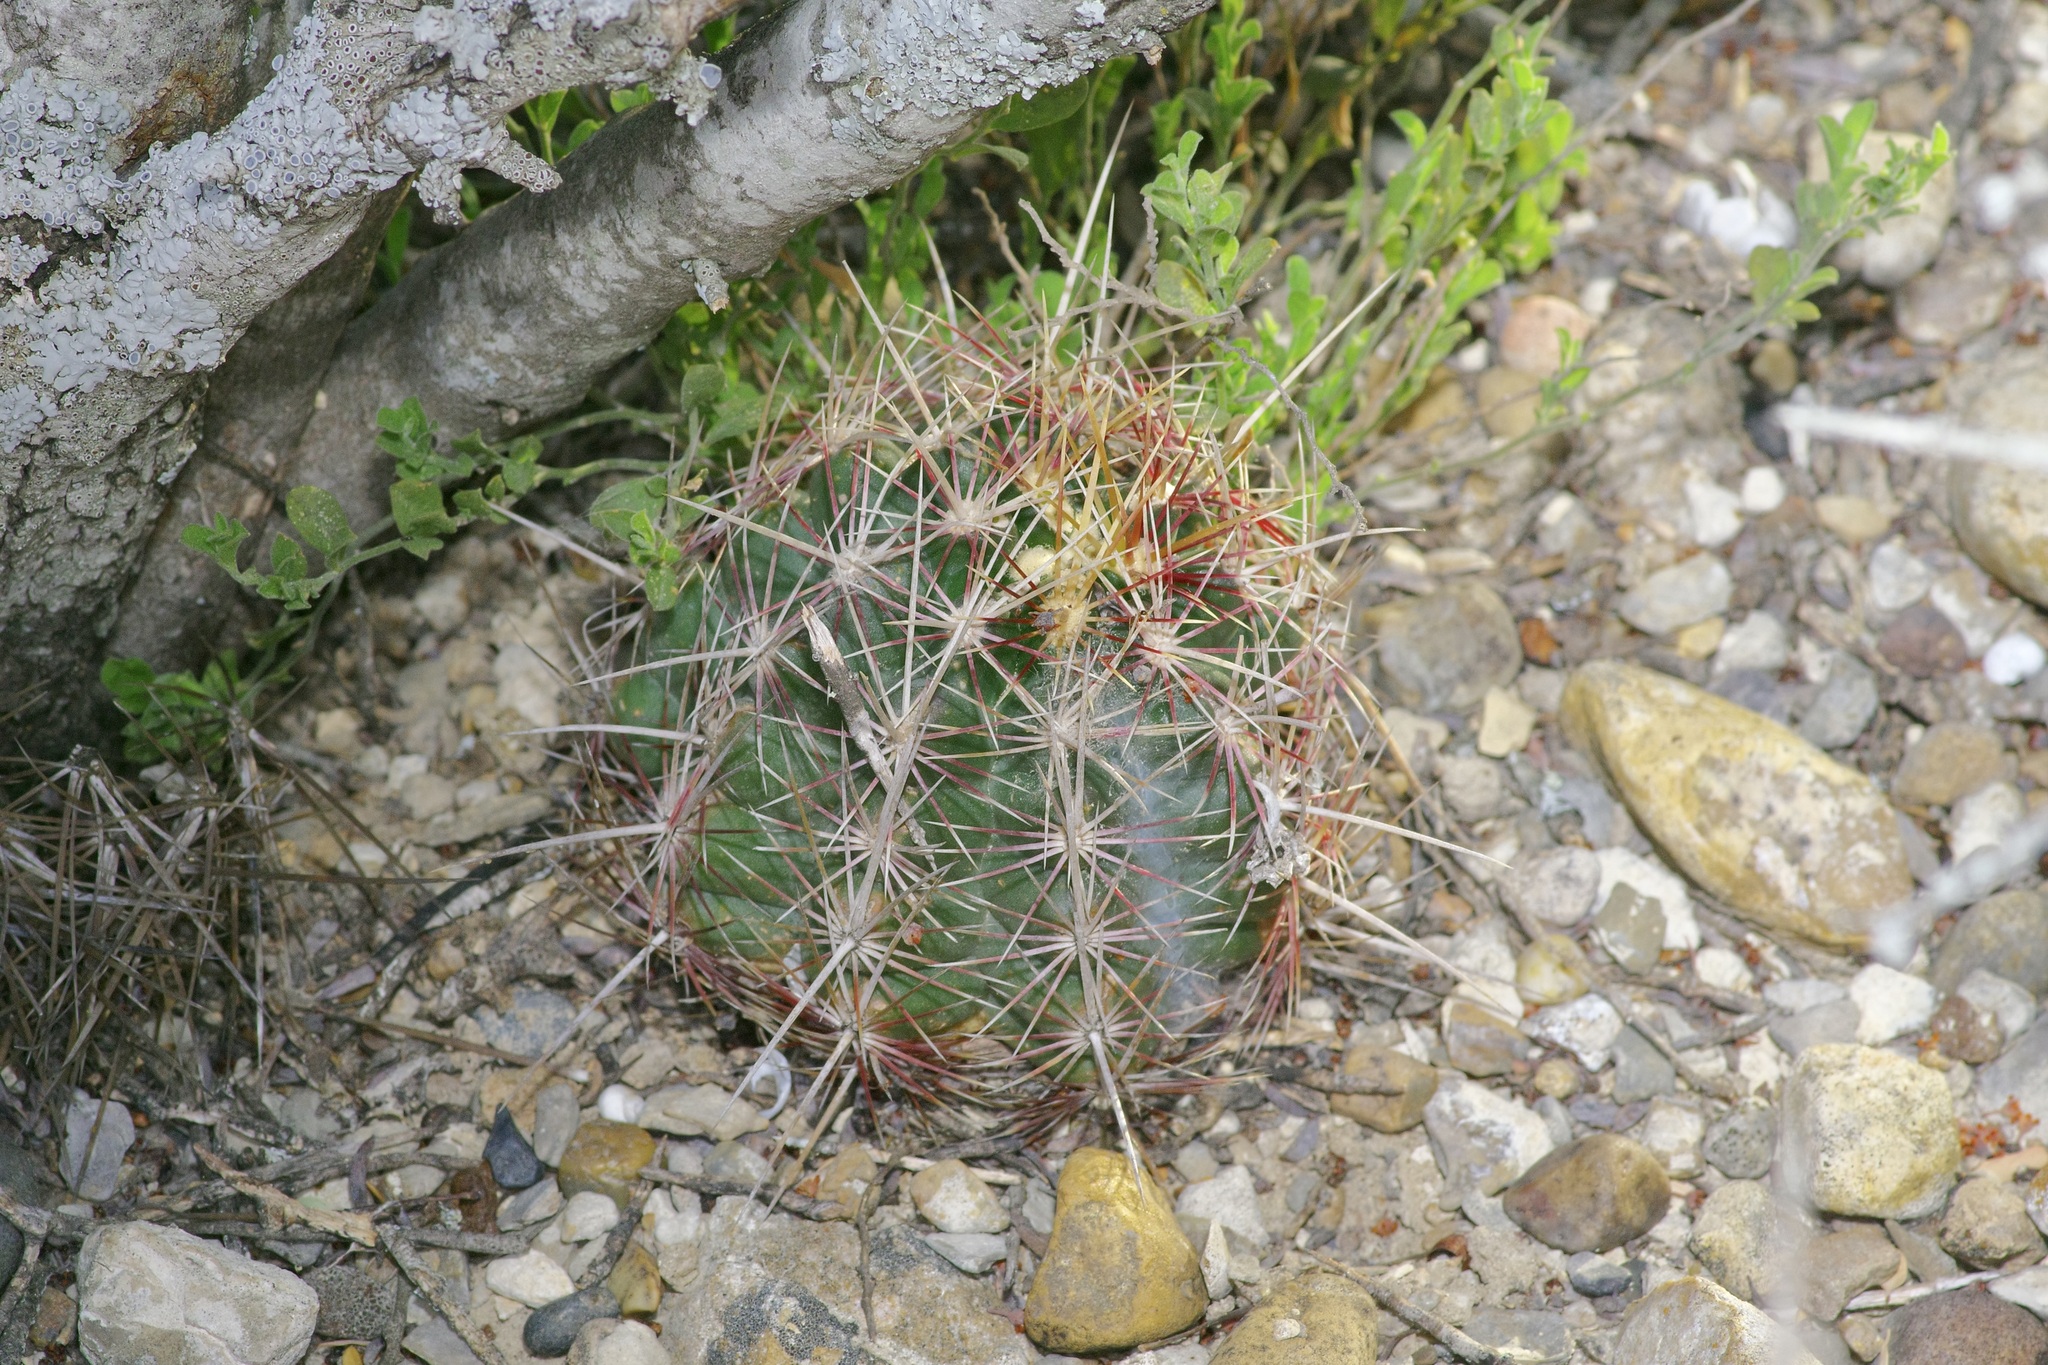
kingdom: Plantae
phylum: Tracheophyta
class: Magnoliopsida
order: Caryophyllales
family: Cactaceae
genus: Thelocactus
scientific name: Thelocactus bicolor
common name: Glory of texas
